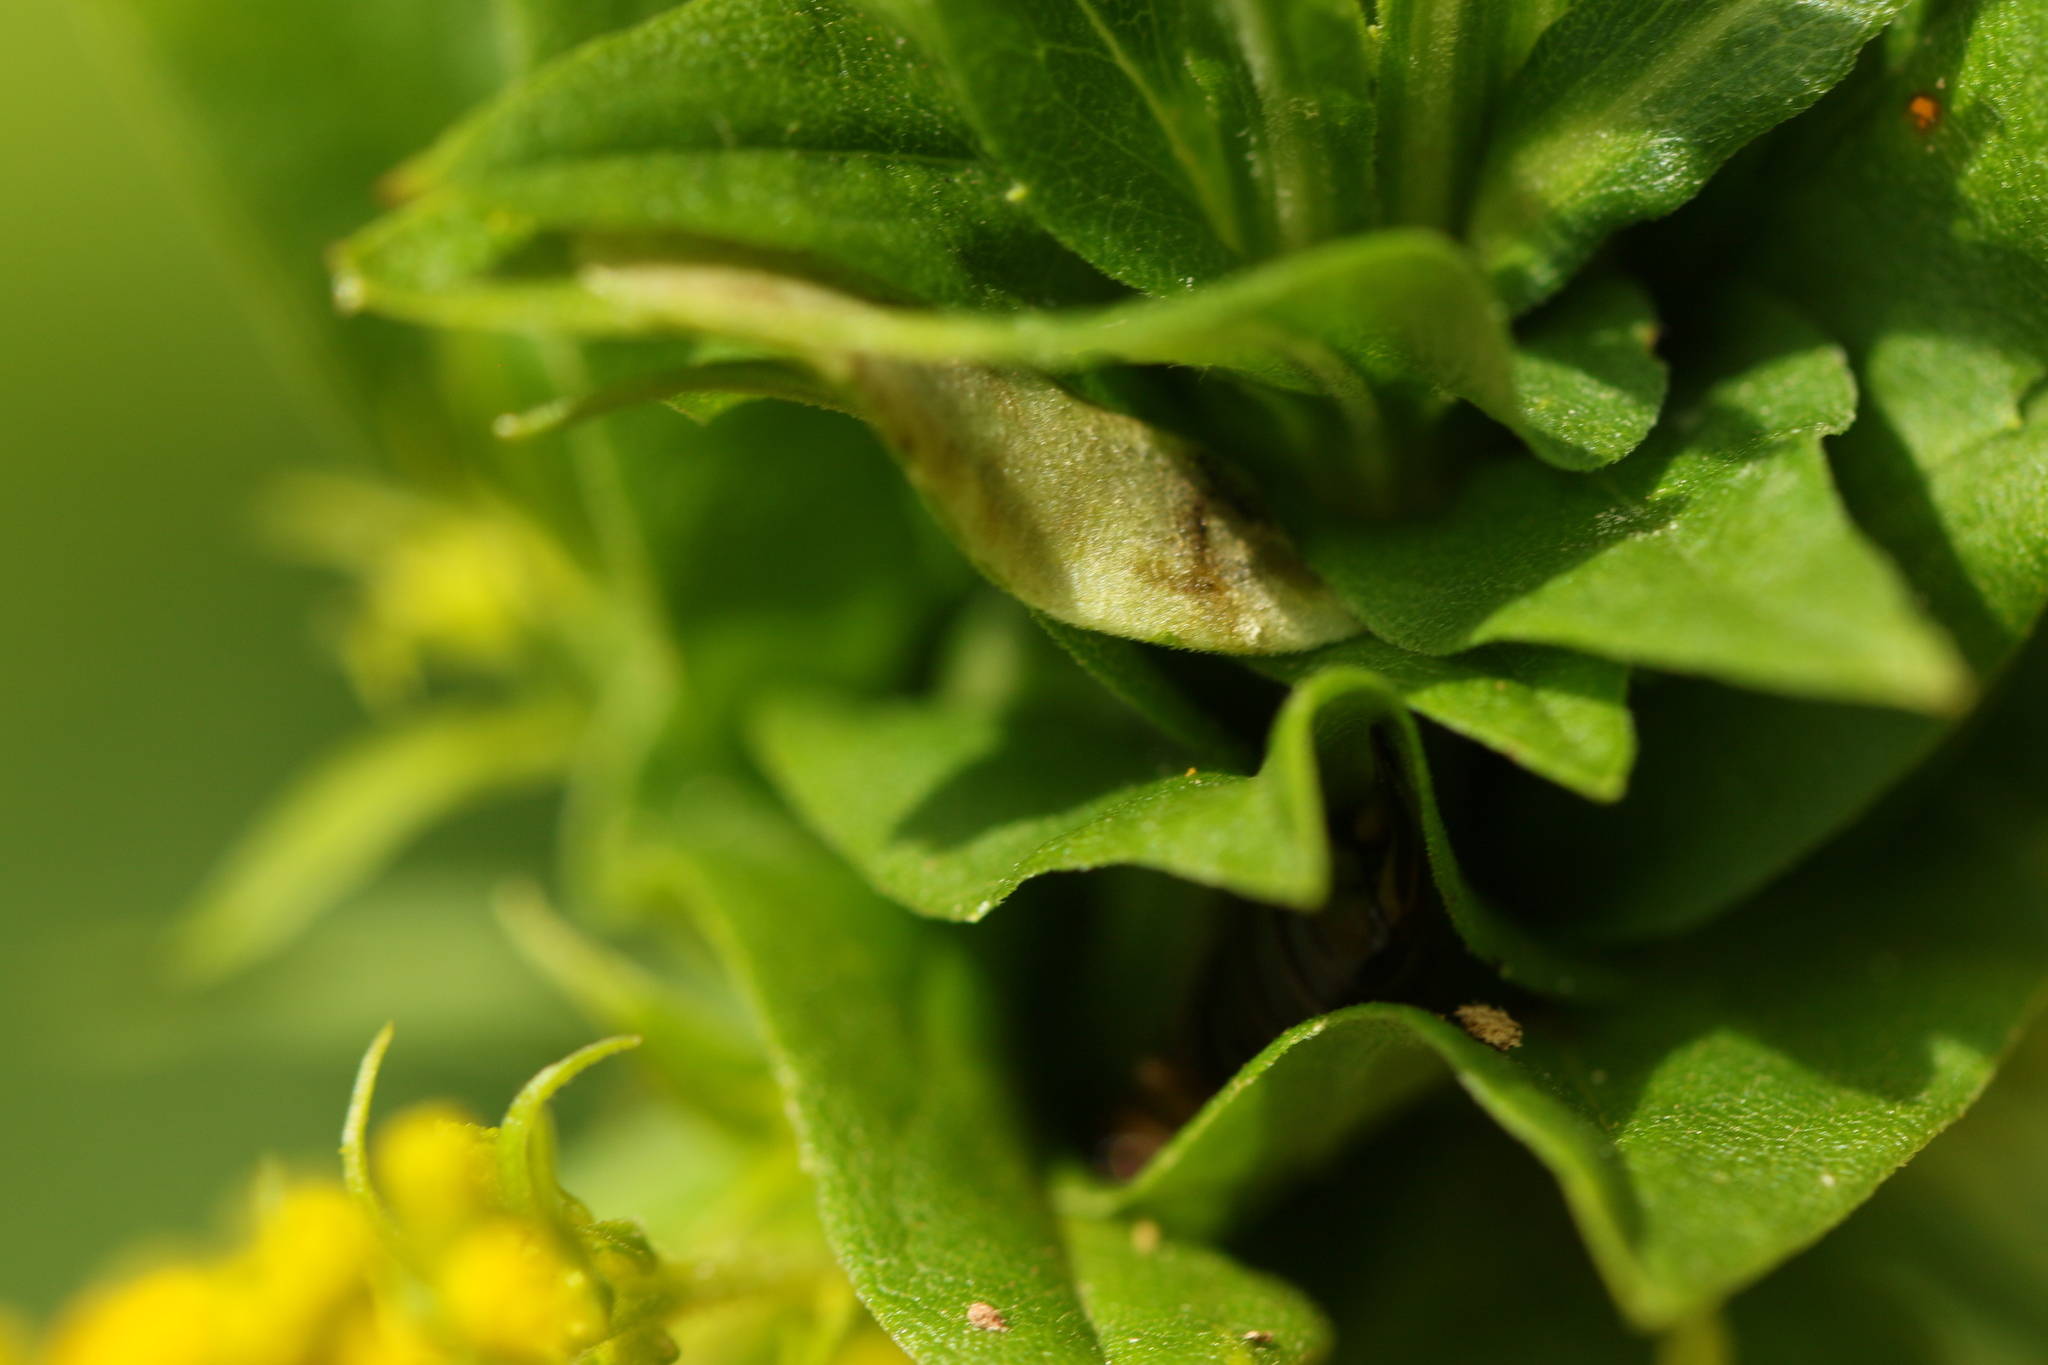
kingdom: Animalia
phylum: Arthropoda
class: Insecta
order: Lepidoptera
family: Sesiidae
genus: Pennisetia
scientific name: Pennisetia marginatum
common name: Raspberry crown borer
